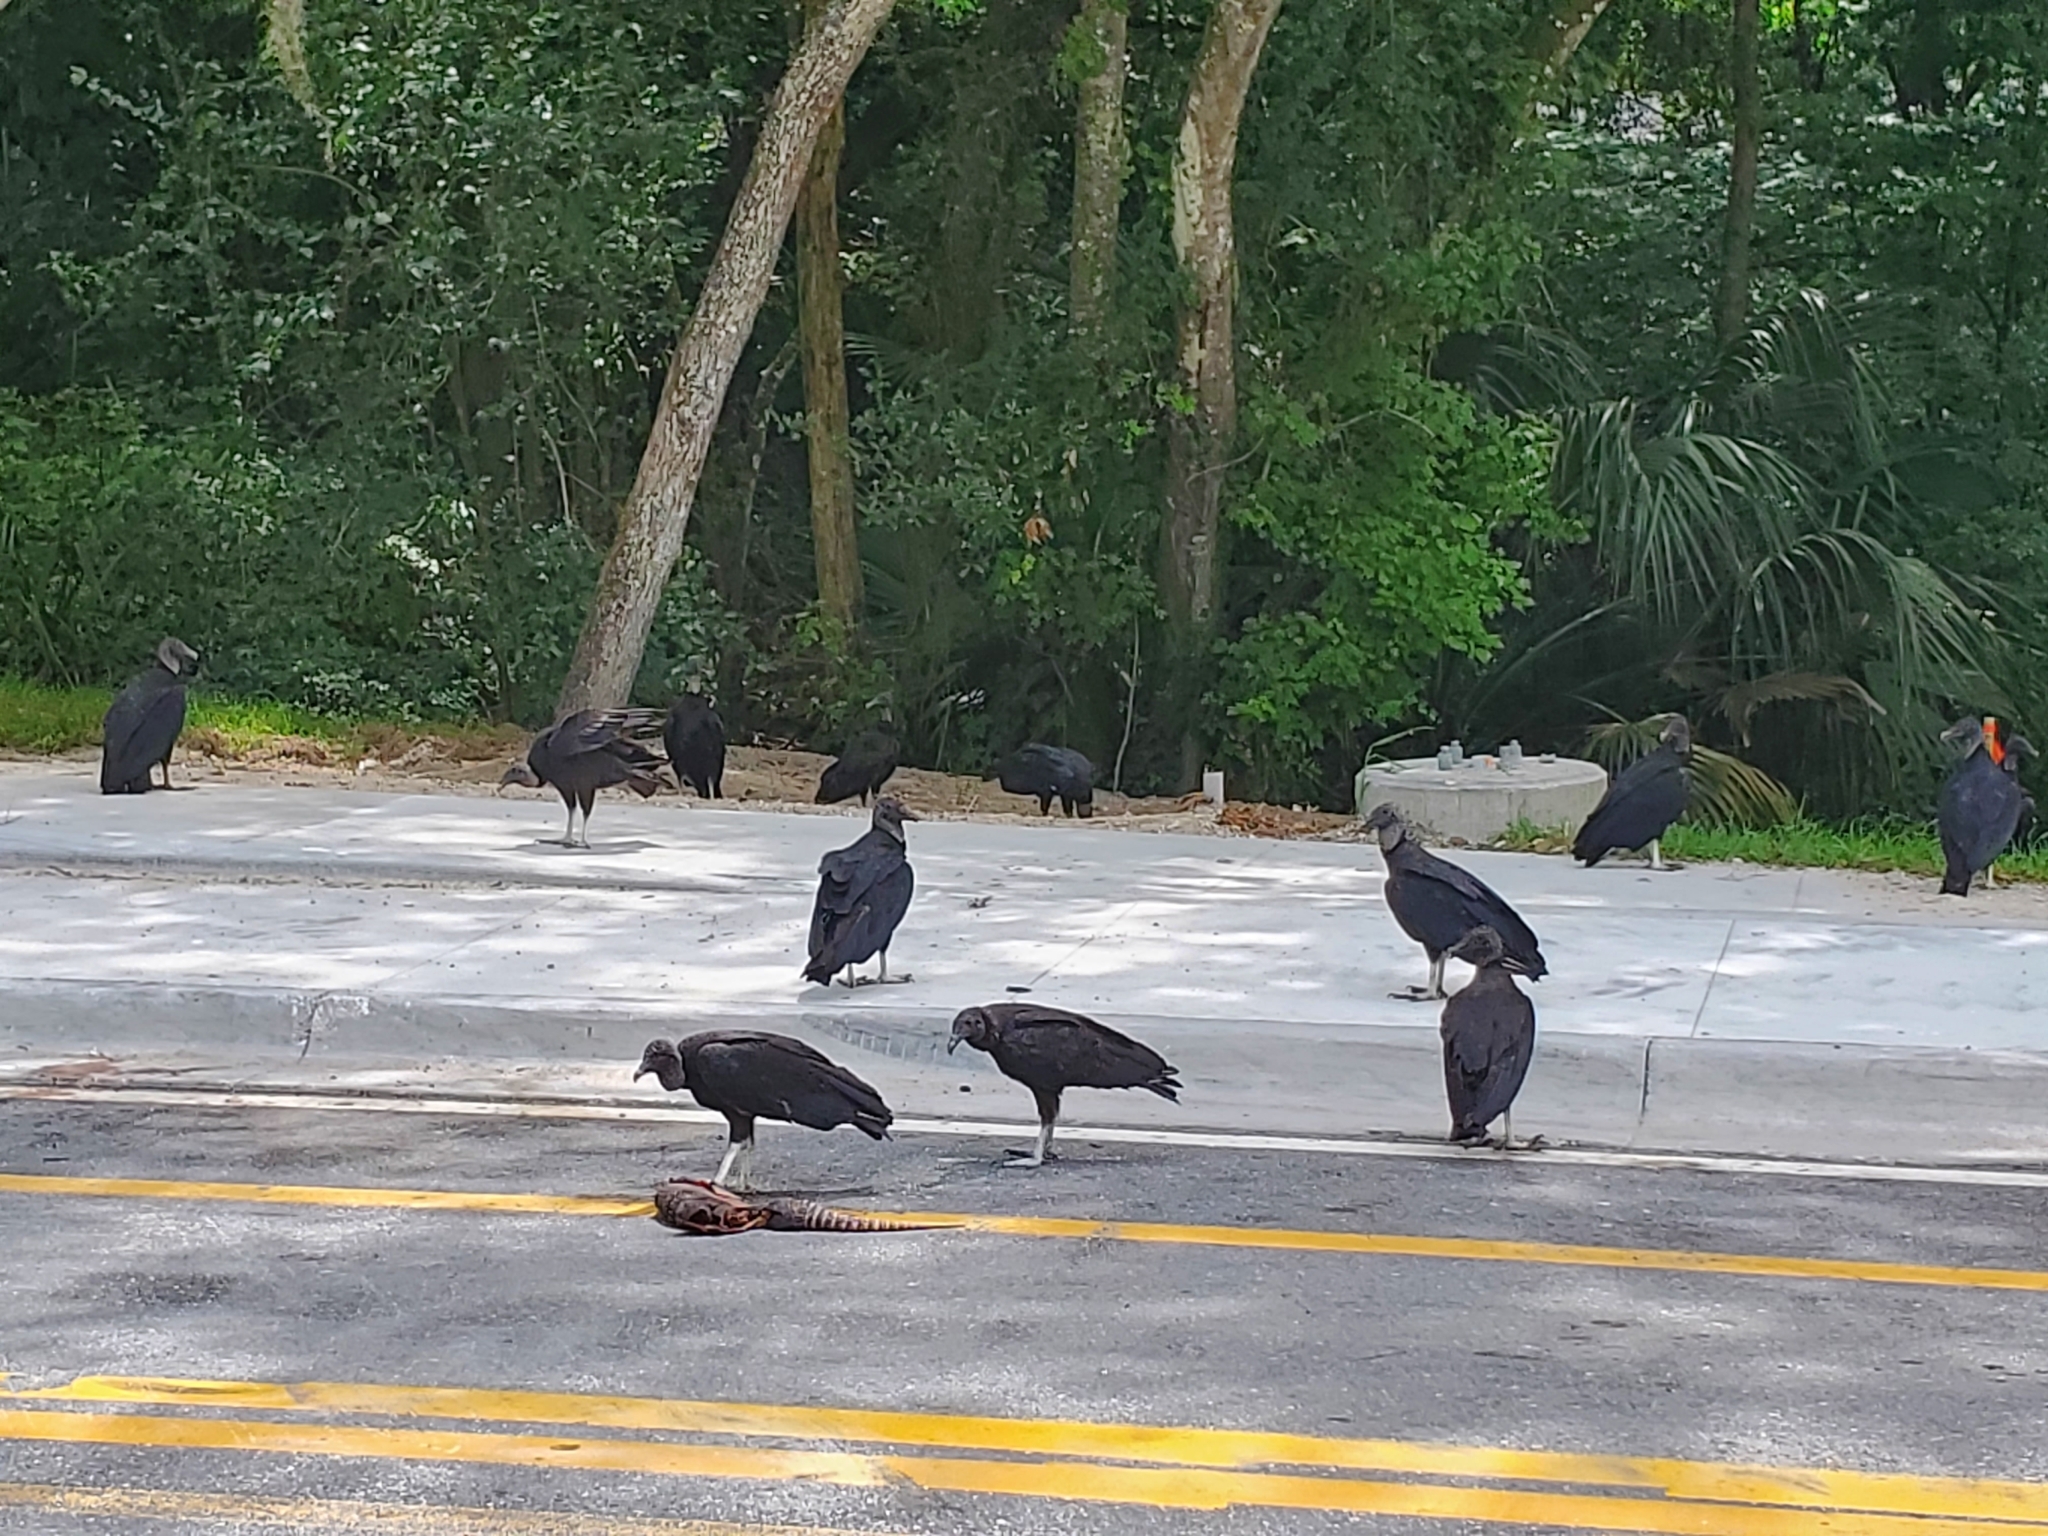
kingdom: Animalia
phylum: Chordata
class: Aves
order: Accipitriformes
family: Cathartidae
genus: Coragyps
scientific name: Coragyps atratus
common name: Black vulture
